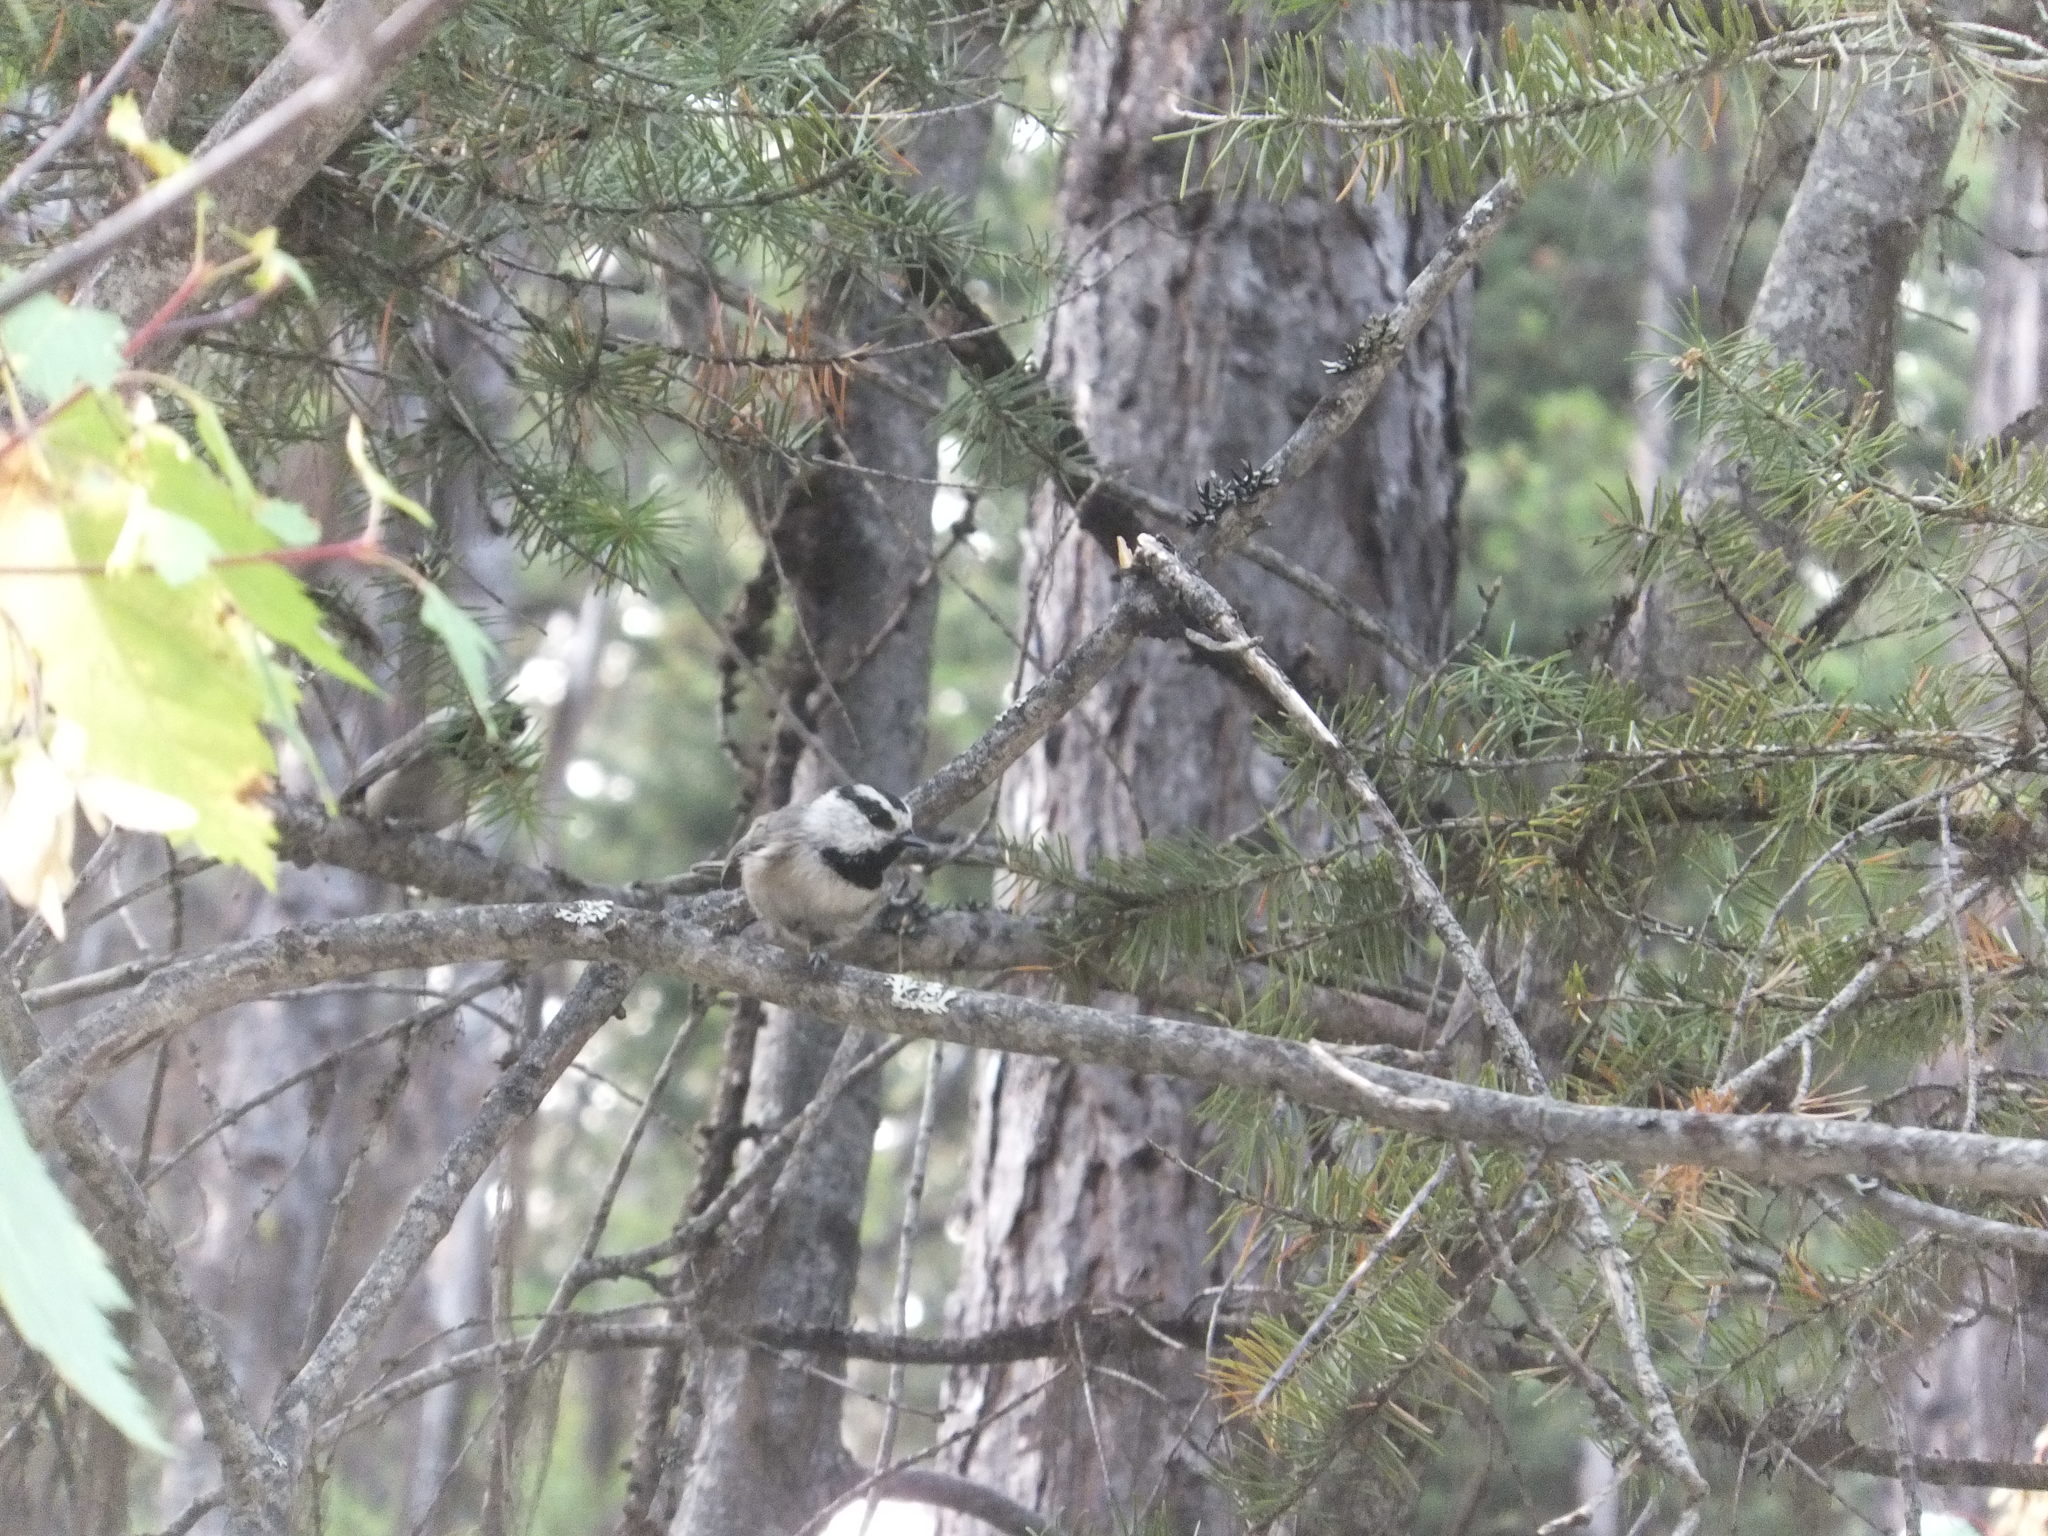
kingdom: Animalia
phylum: Chordata
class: Aves
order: Passeriformes
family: Paridae
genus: Poecile
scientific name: Poecile gambeli
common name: Mountain chickadee
